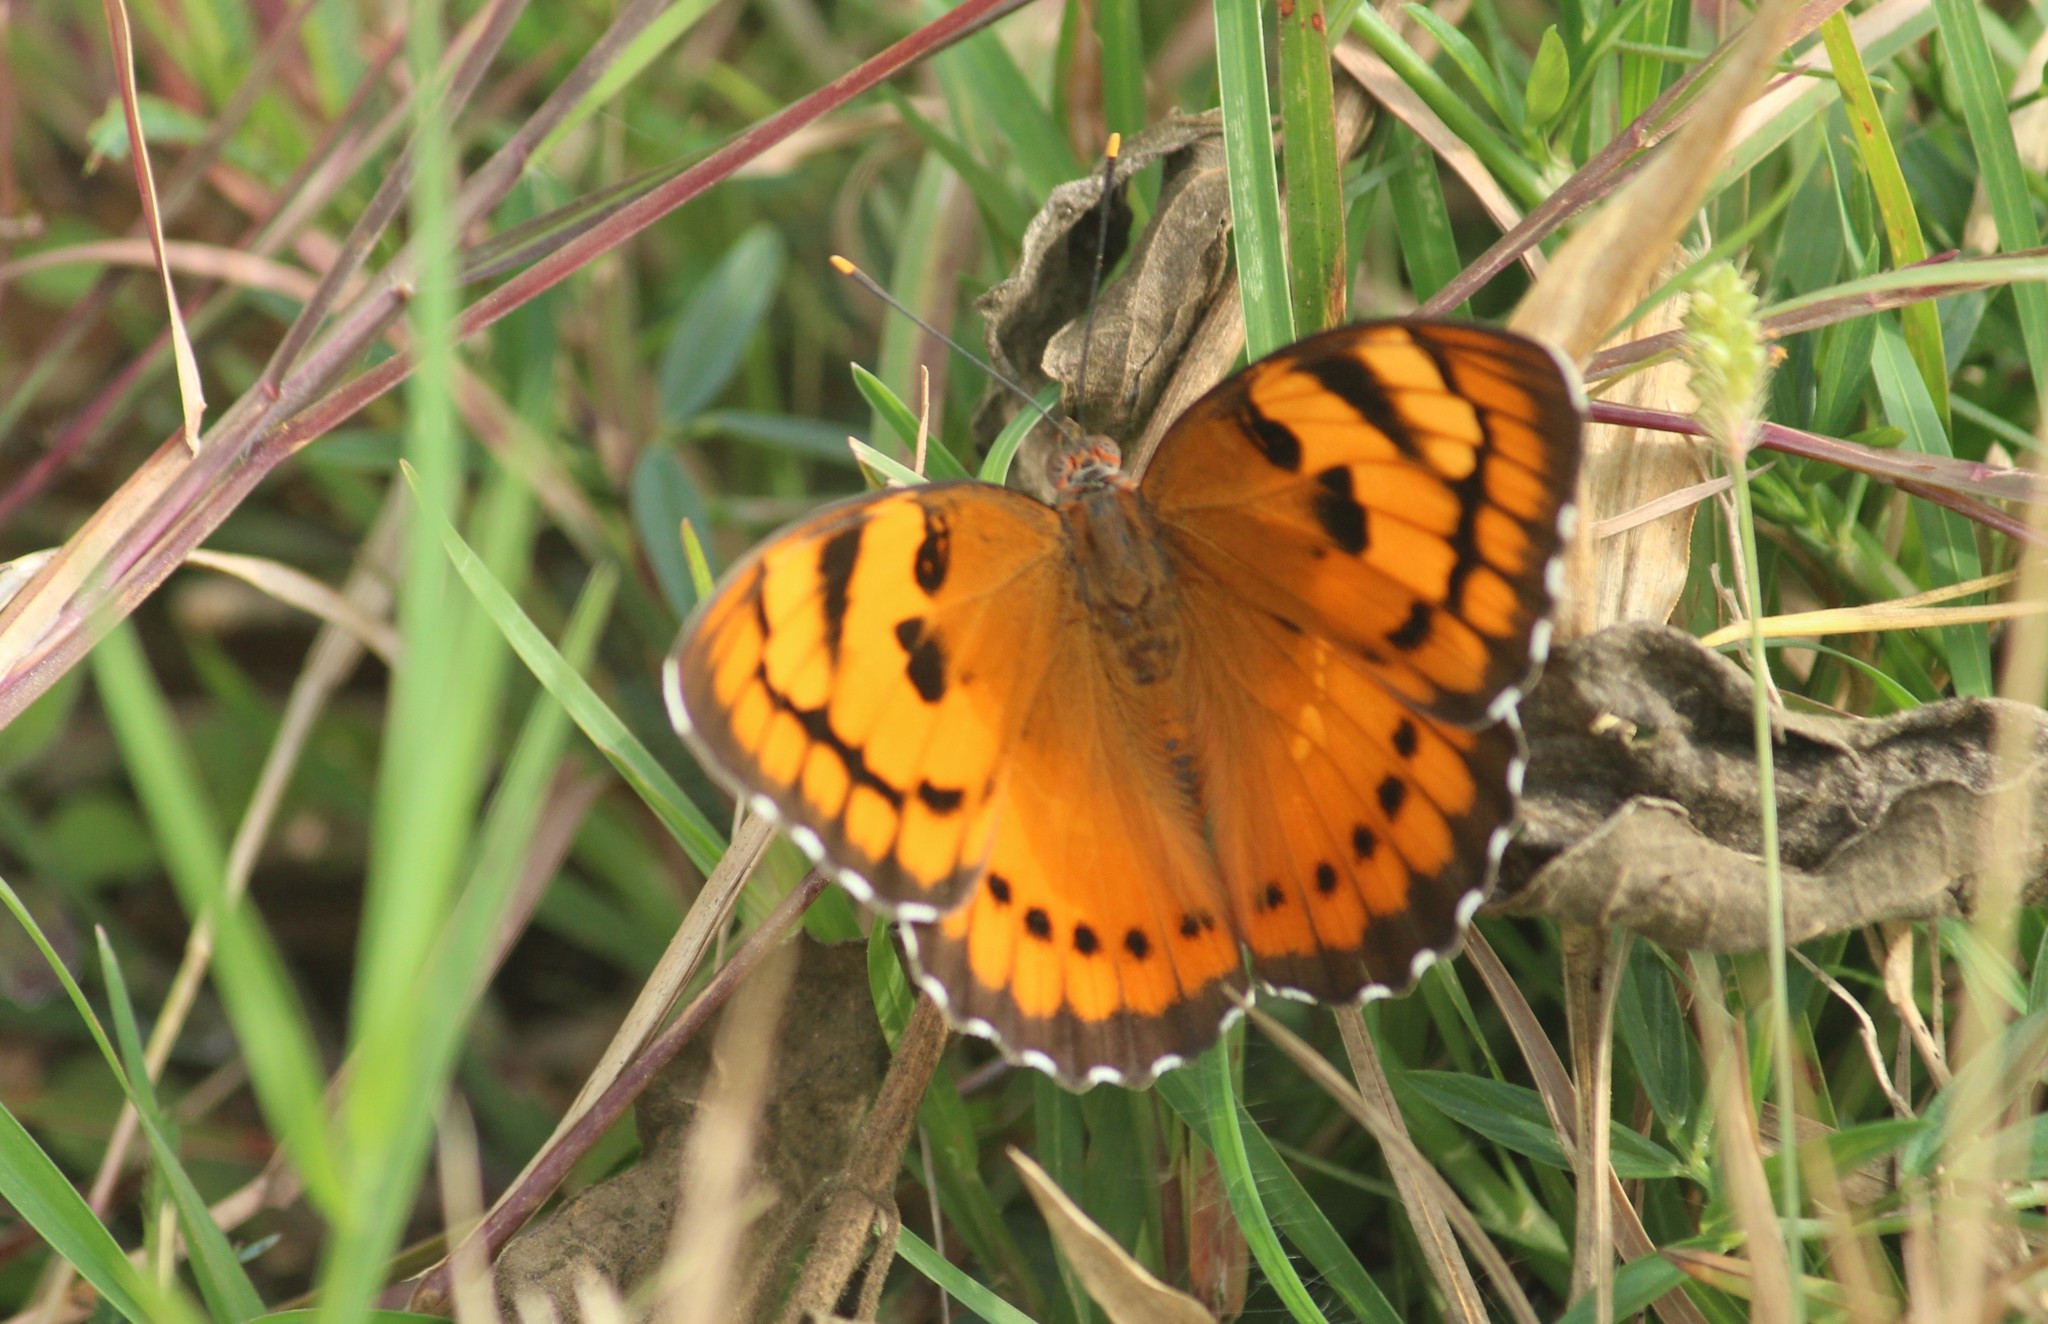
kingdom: Animalia
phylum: Arthropoda
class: Insecta
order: Lepidoptera
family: Nymphalidae
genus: Euthalia
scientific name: Euthalia nais
